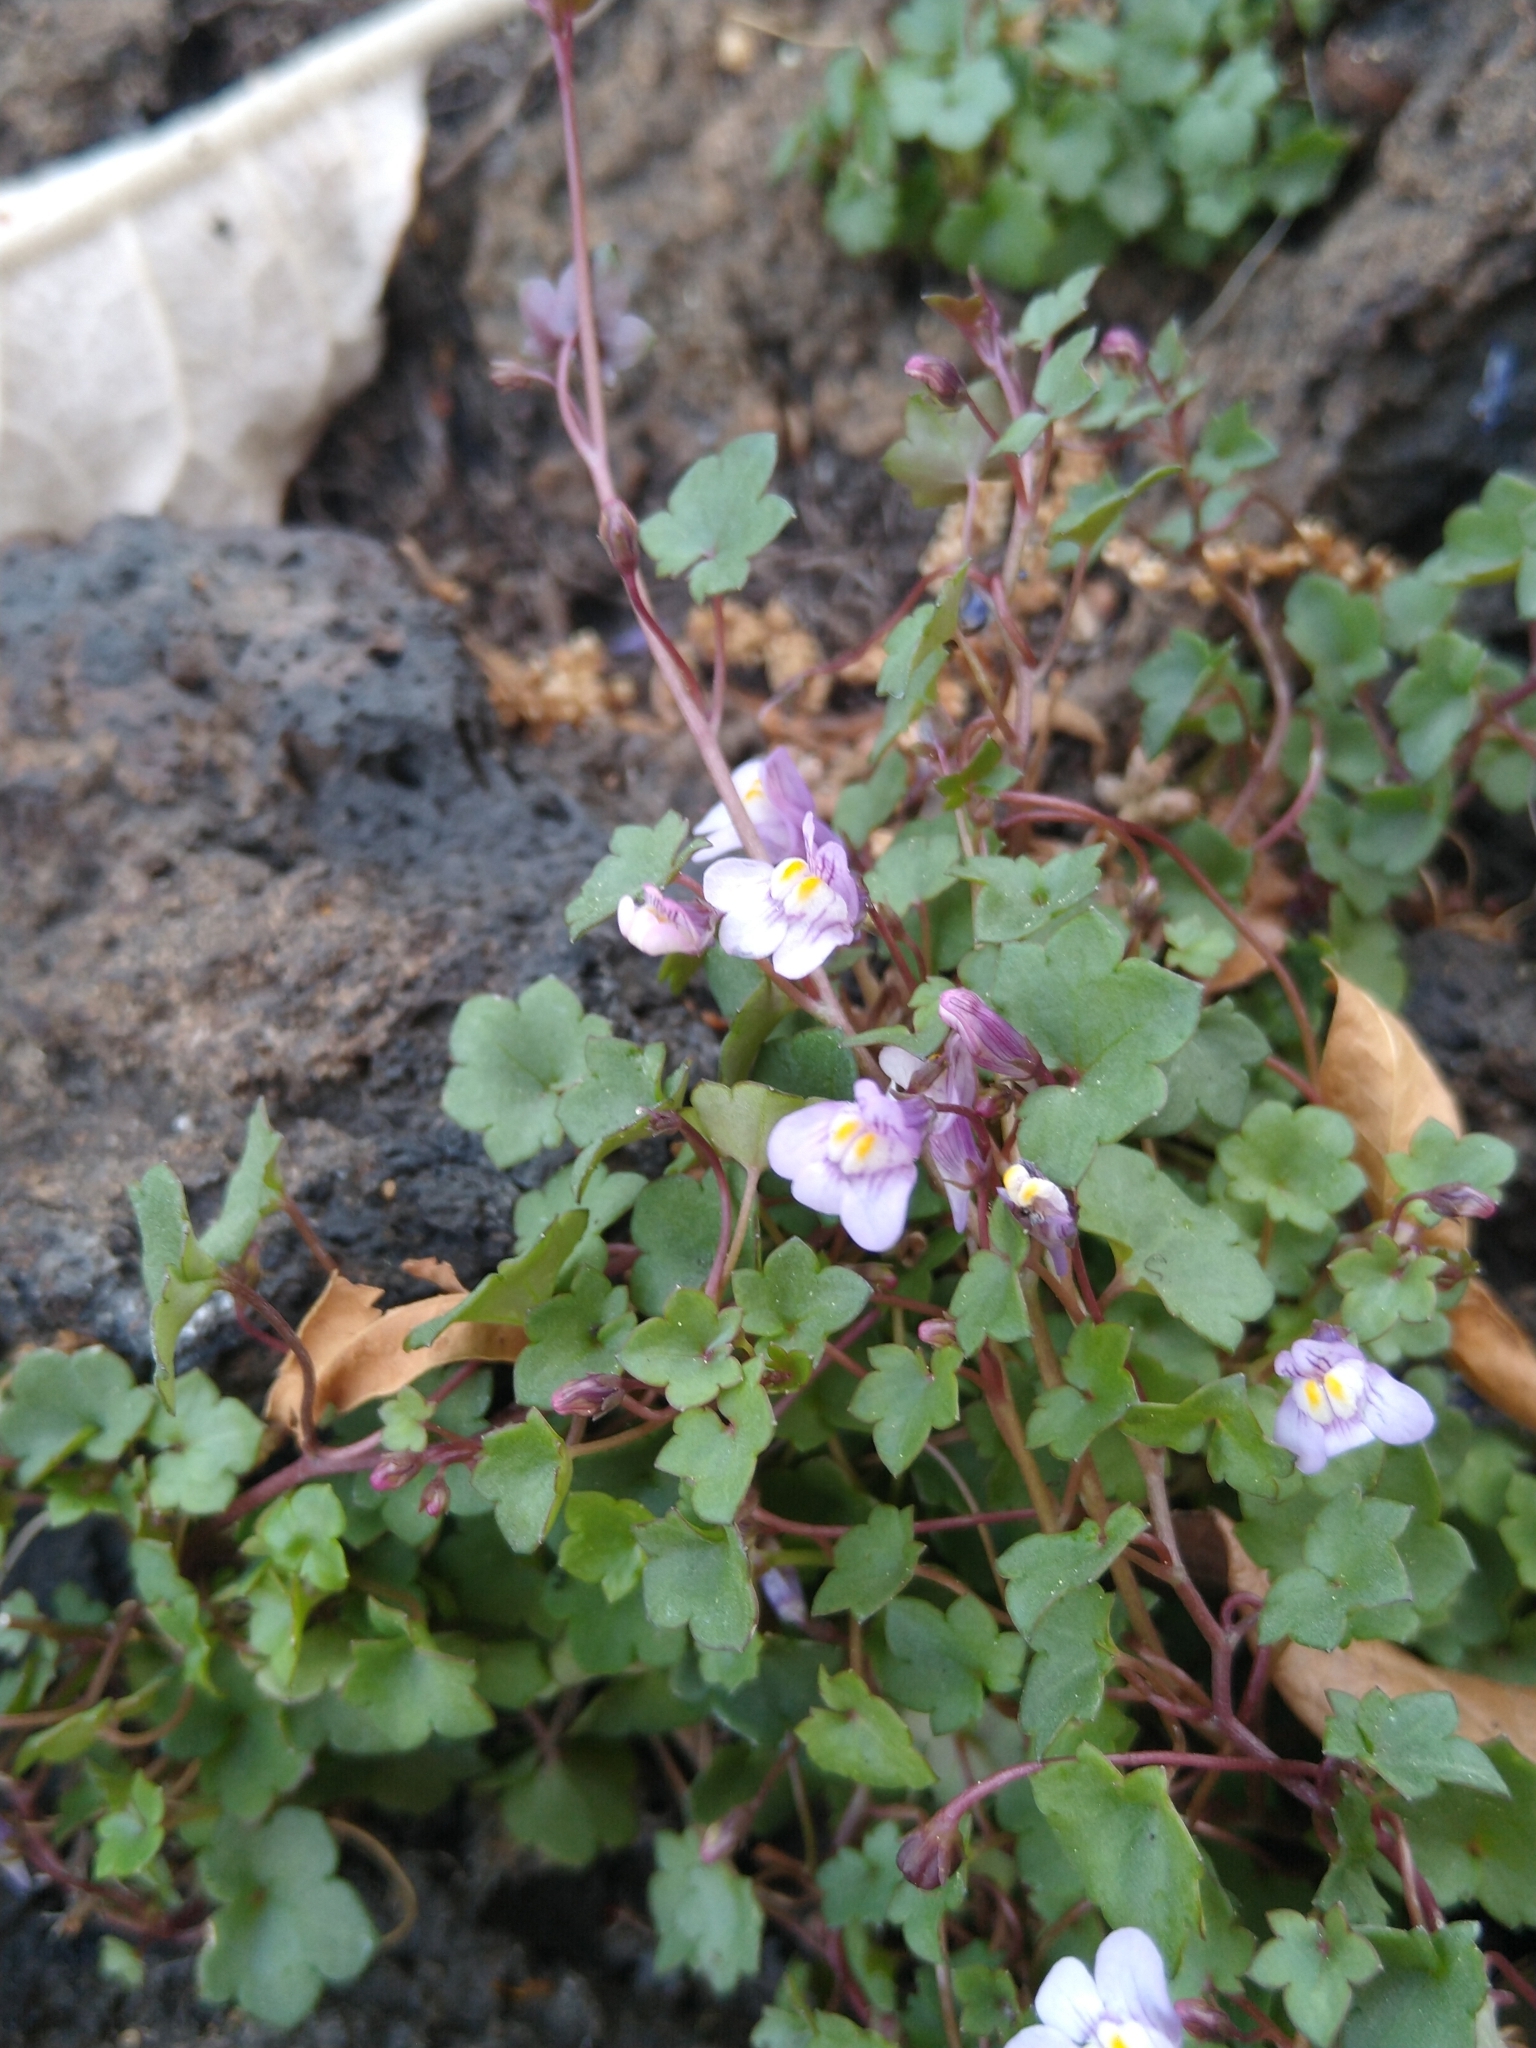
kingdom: Plantae
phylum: Tracheophyta
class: Magnoliopsida
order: Lamiales
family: Plantaginaceae
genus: Cymbalaria
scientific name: Cymbalaria muralis
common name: Ivy-leaved toadflax
